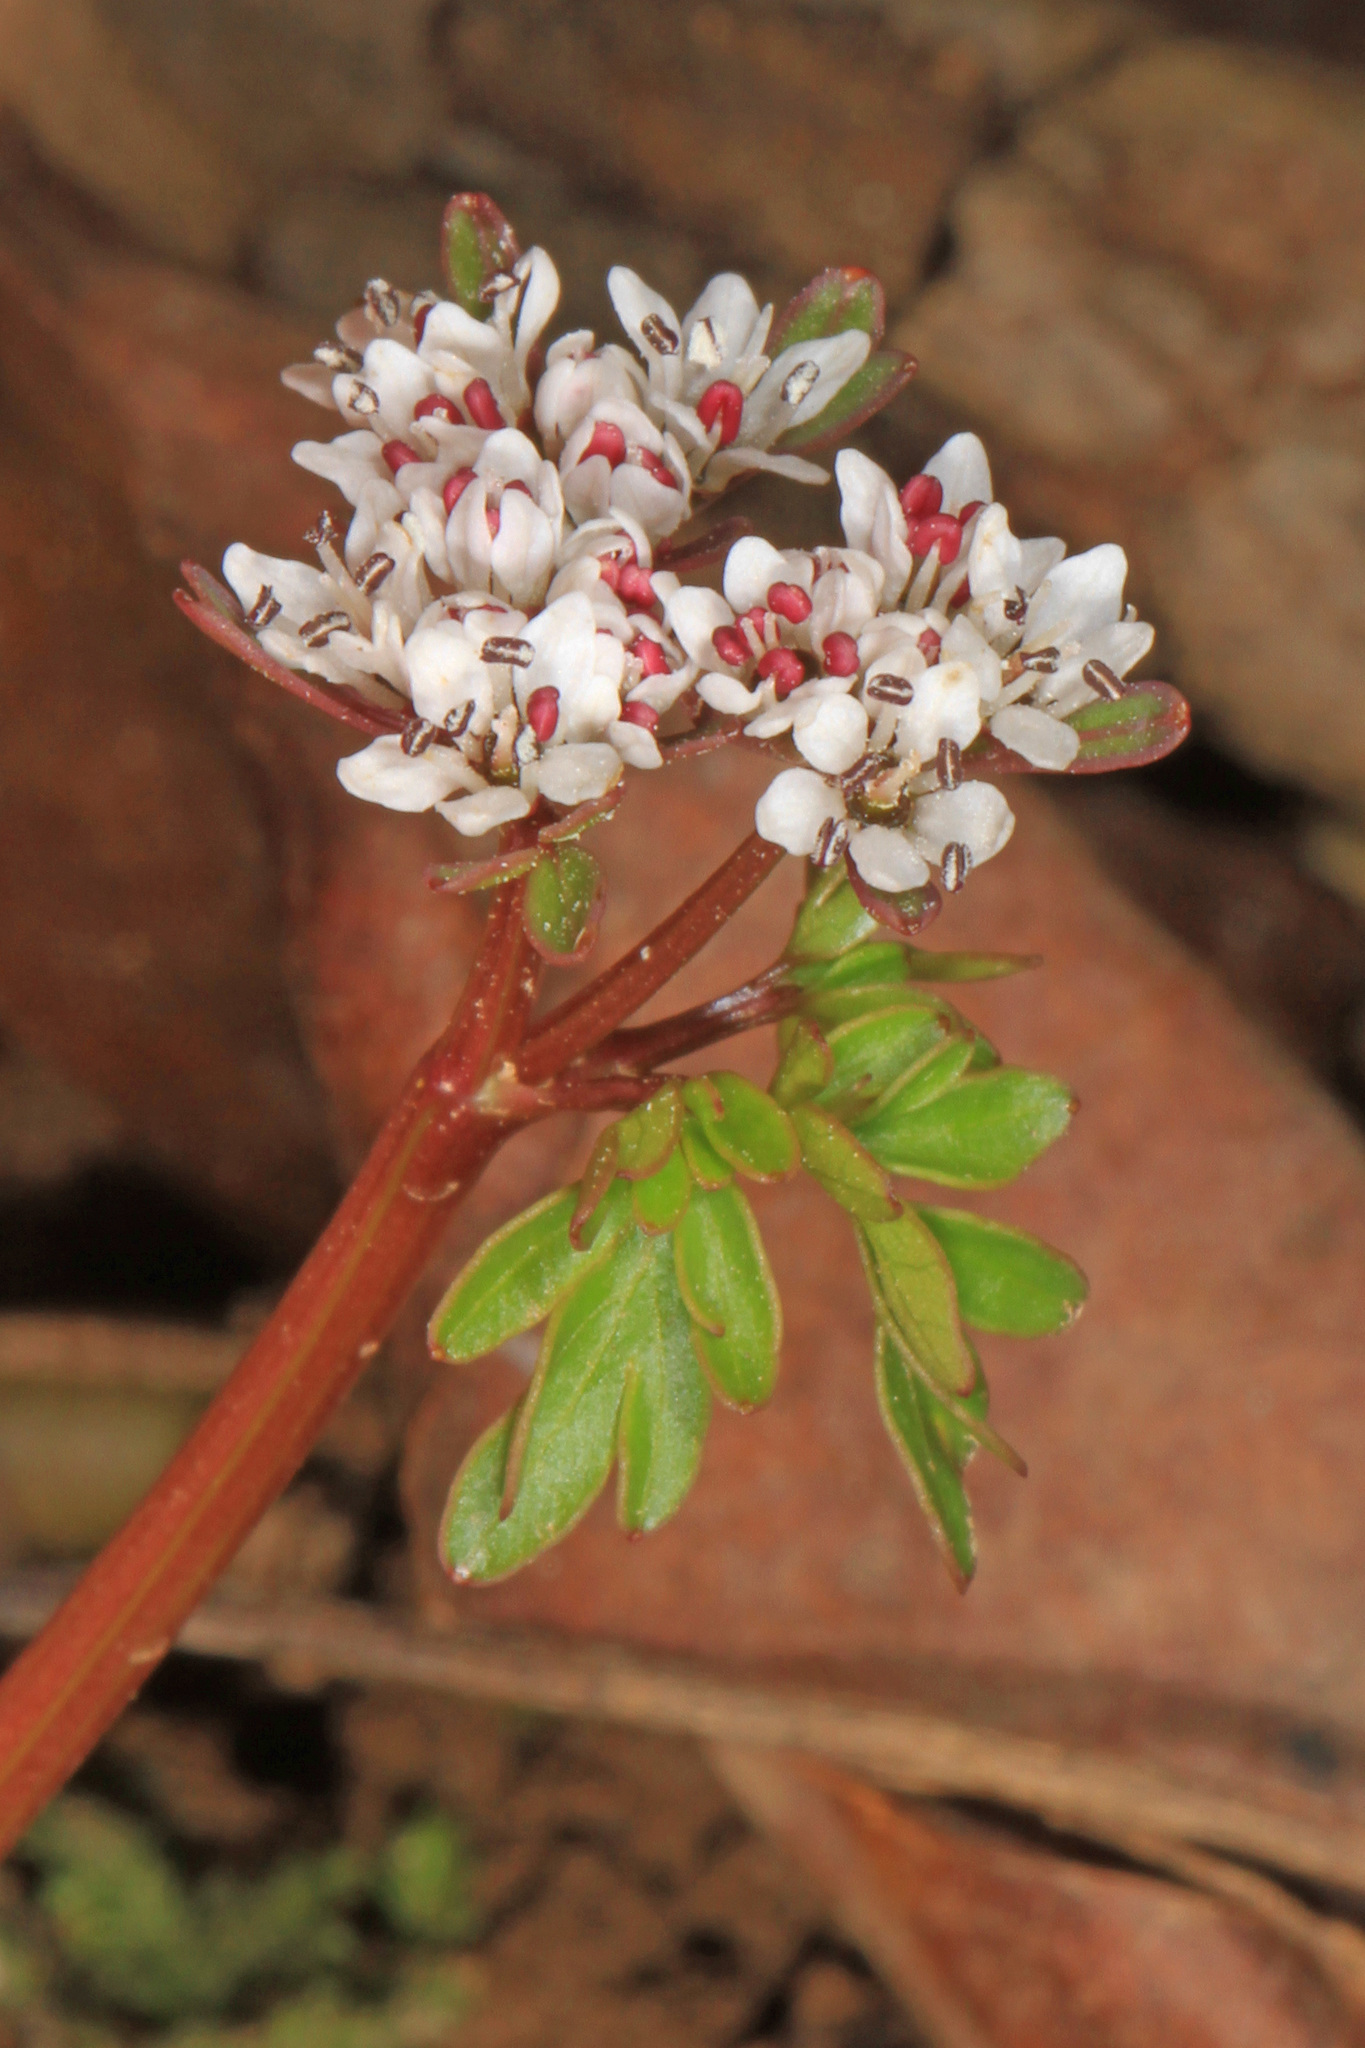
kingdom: Plantae
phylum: Tracheophyta
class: Magnoliopsida
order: Apiales
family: Apiaceae
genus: Erigenia
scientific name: Erigenia bulbosa
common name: Pepper-and-salt
